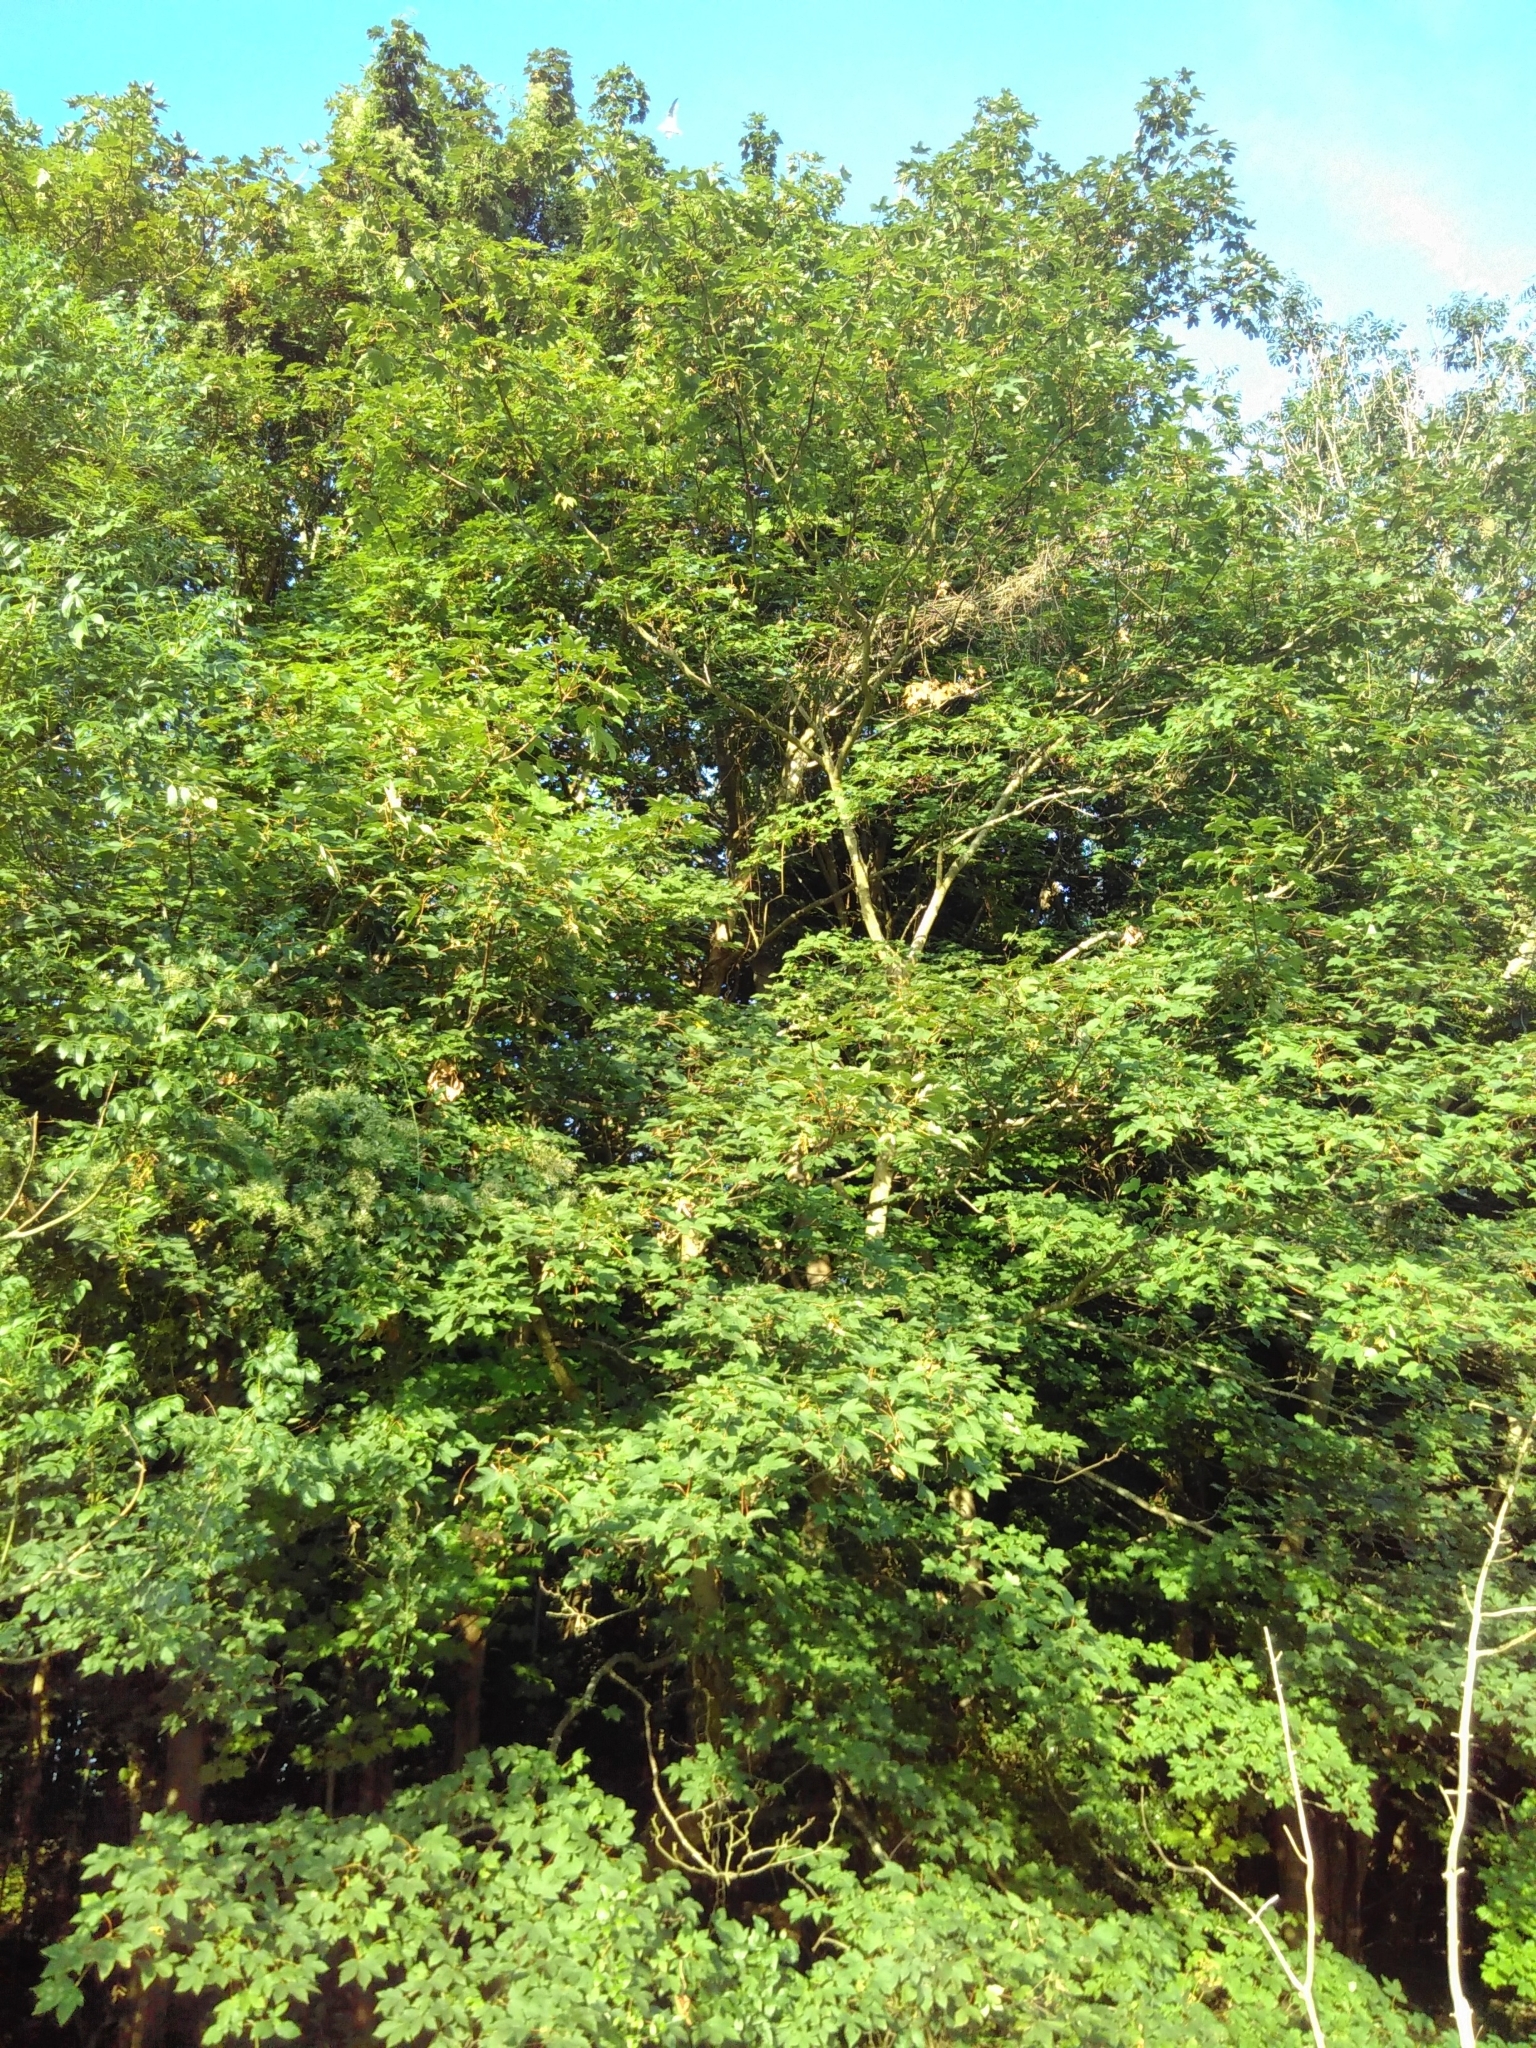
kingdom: Plantae
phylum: Tracheophyta
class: Magnoliopsida
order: Sapindales
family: Sapindaceae
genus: Acer
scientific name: Acer pseudoplatanus
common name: Sycamore
